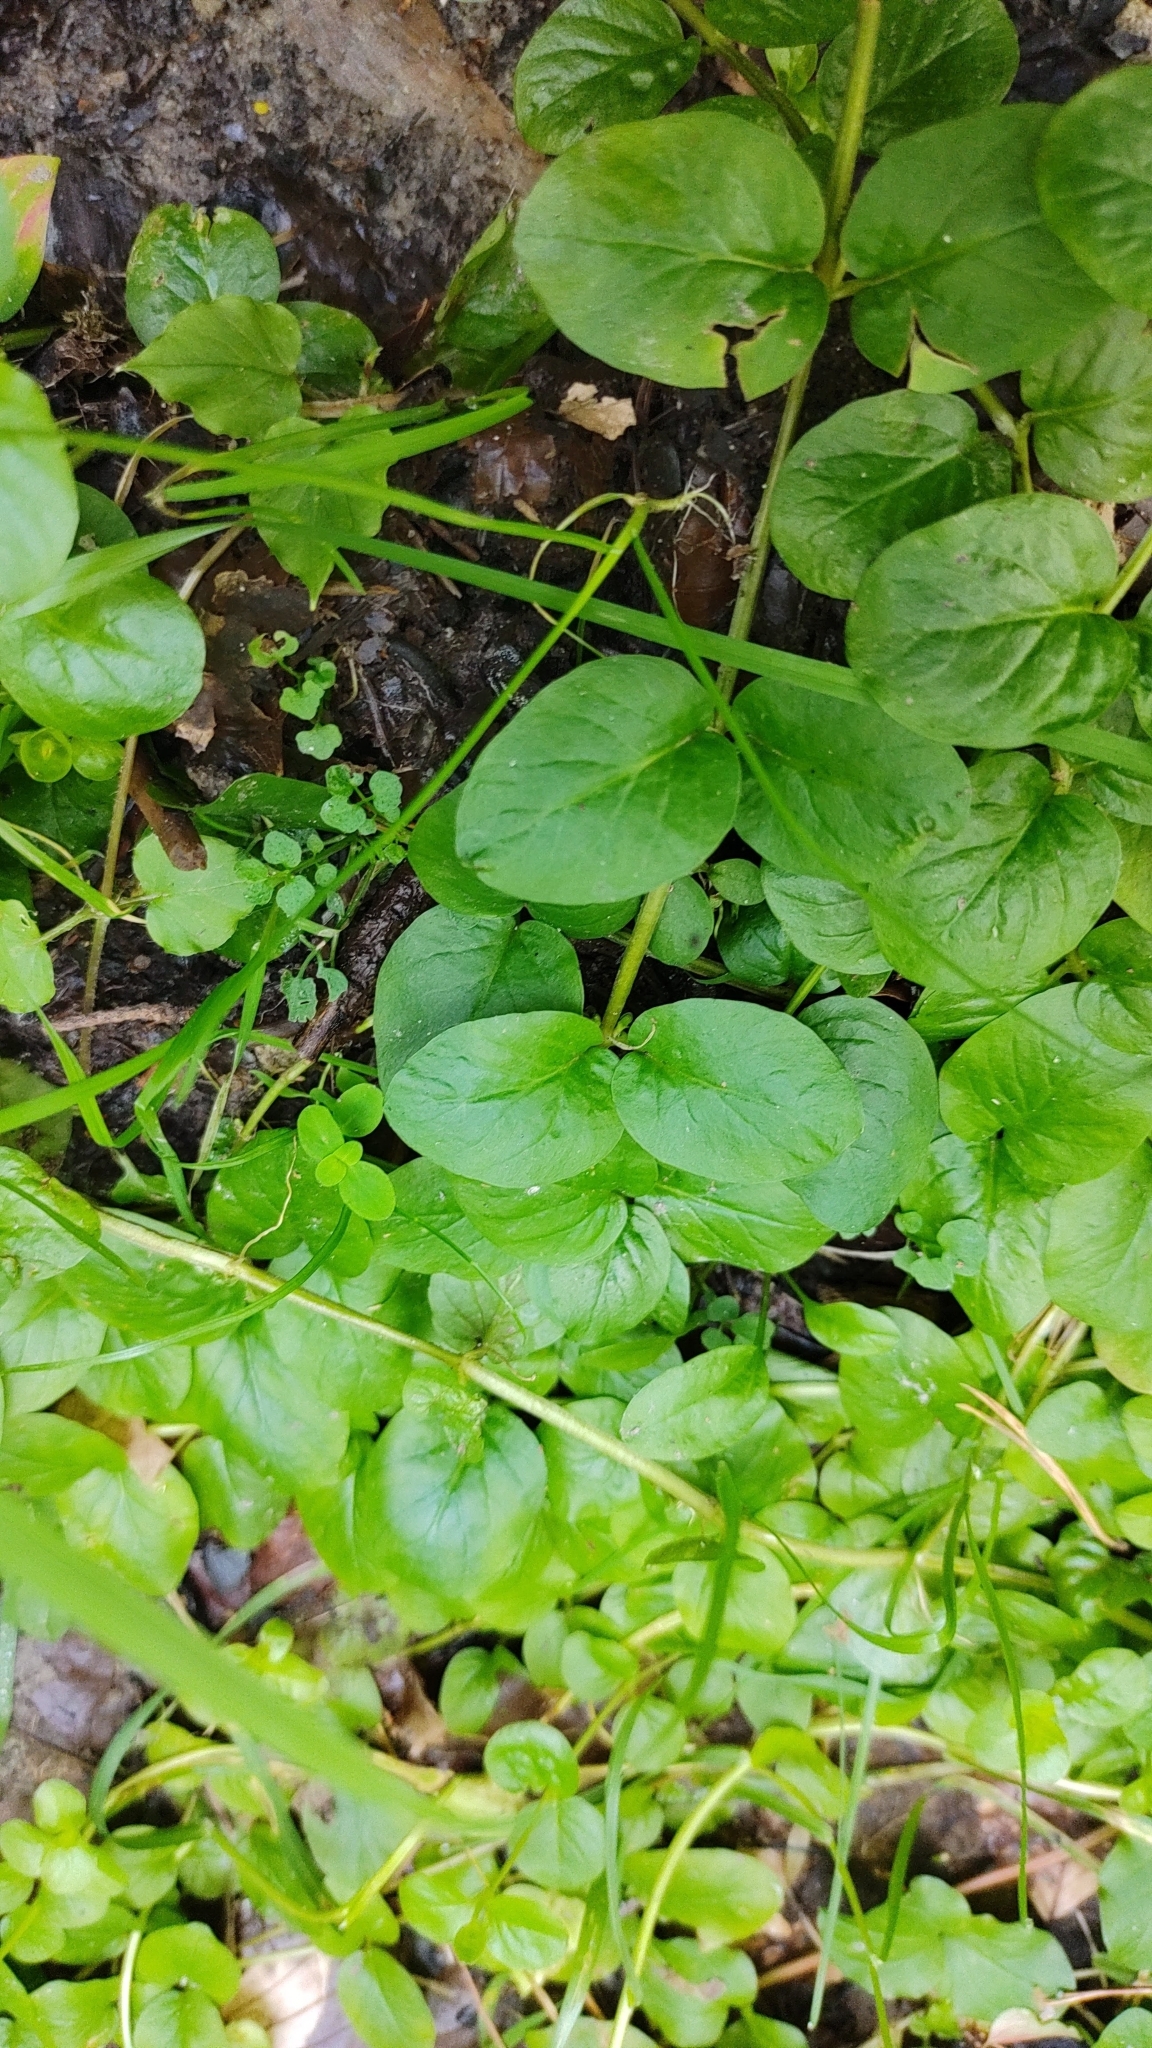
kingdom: Plantae
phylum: Tracheophyta
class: Magnoliopsida
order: Ericales
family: Primulaceae
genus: Lysimachia
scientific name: Lysimachia nummularia
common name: Moneywort
